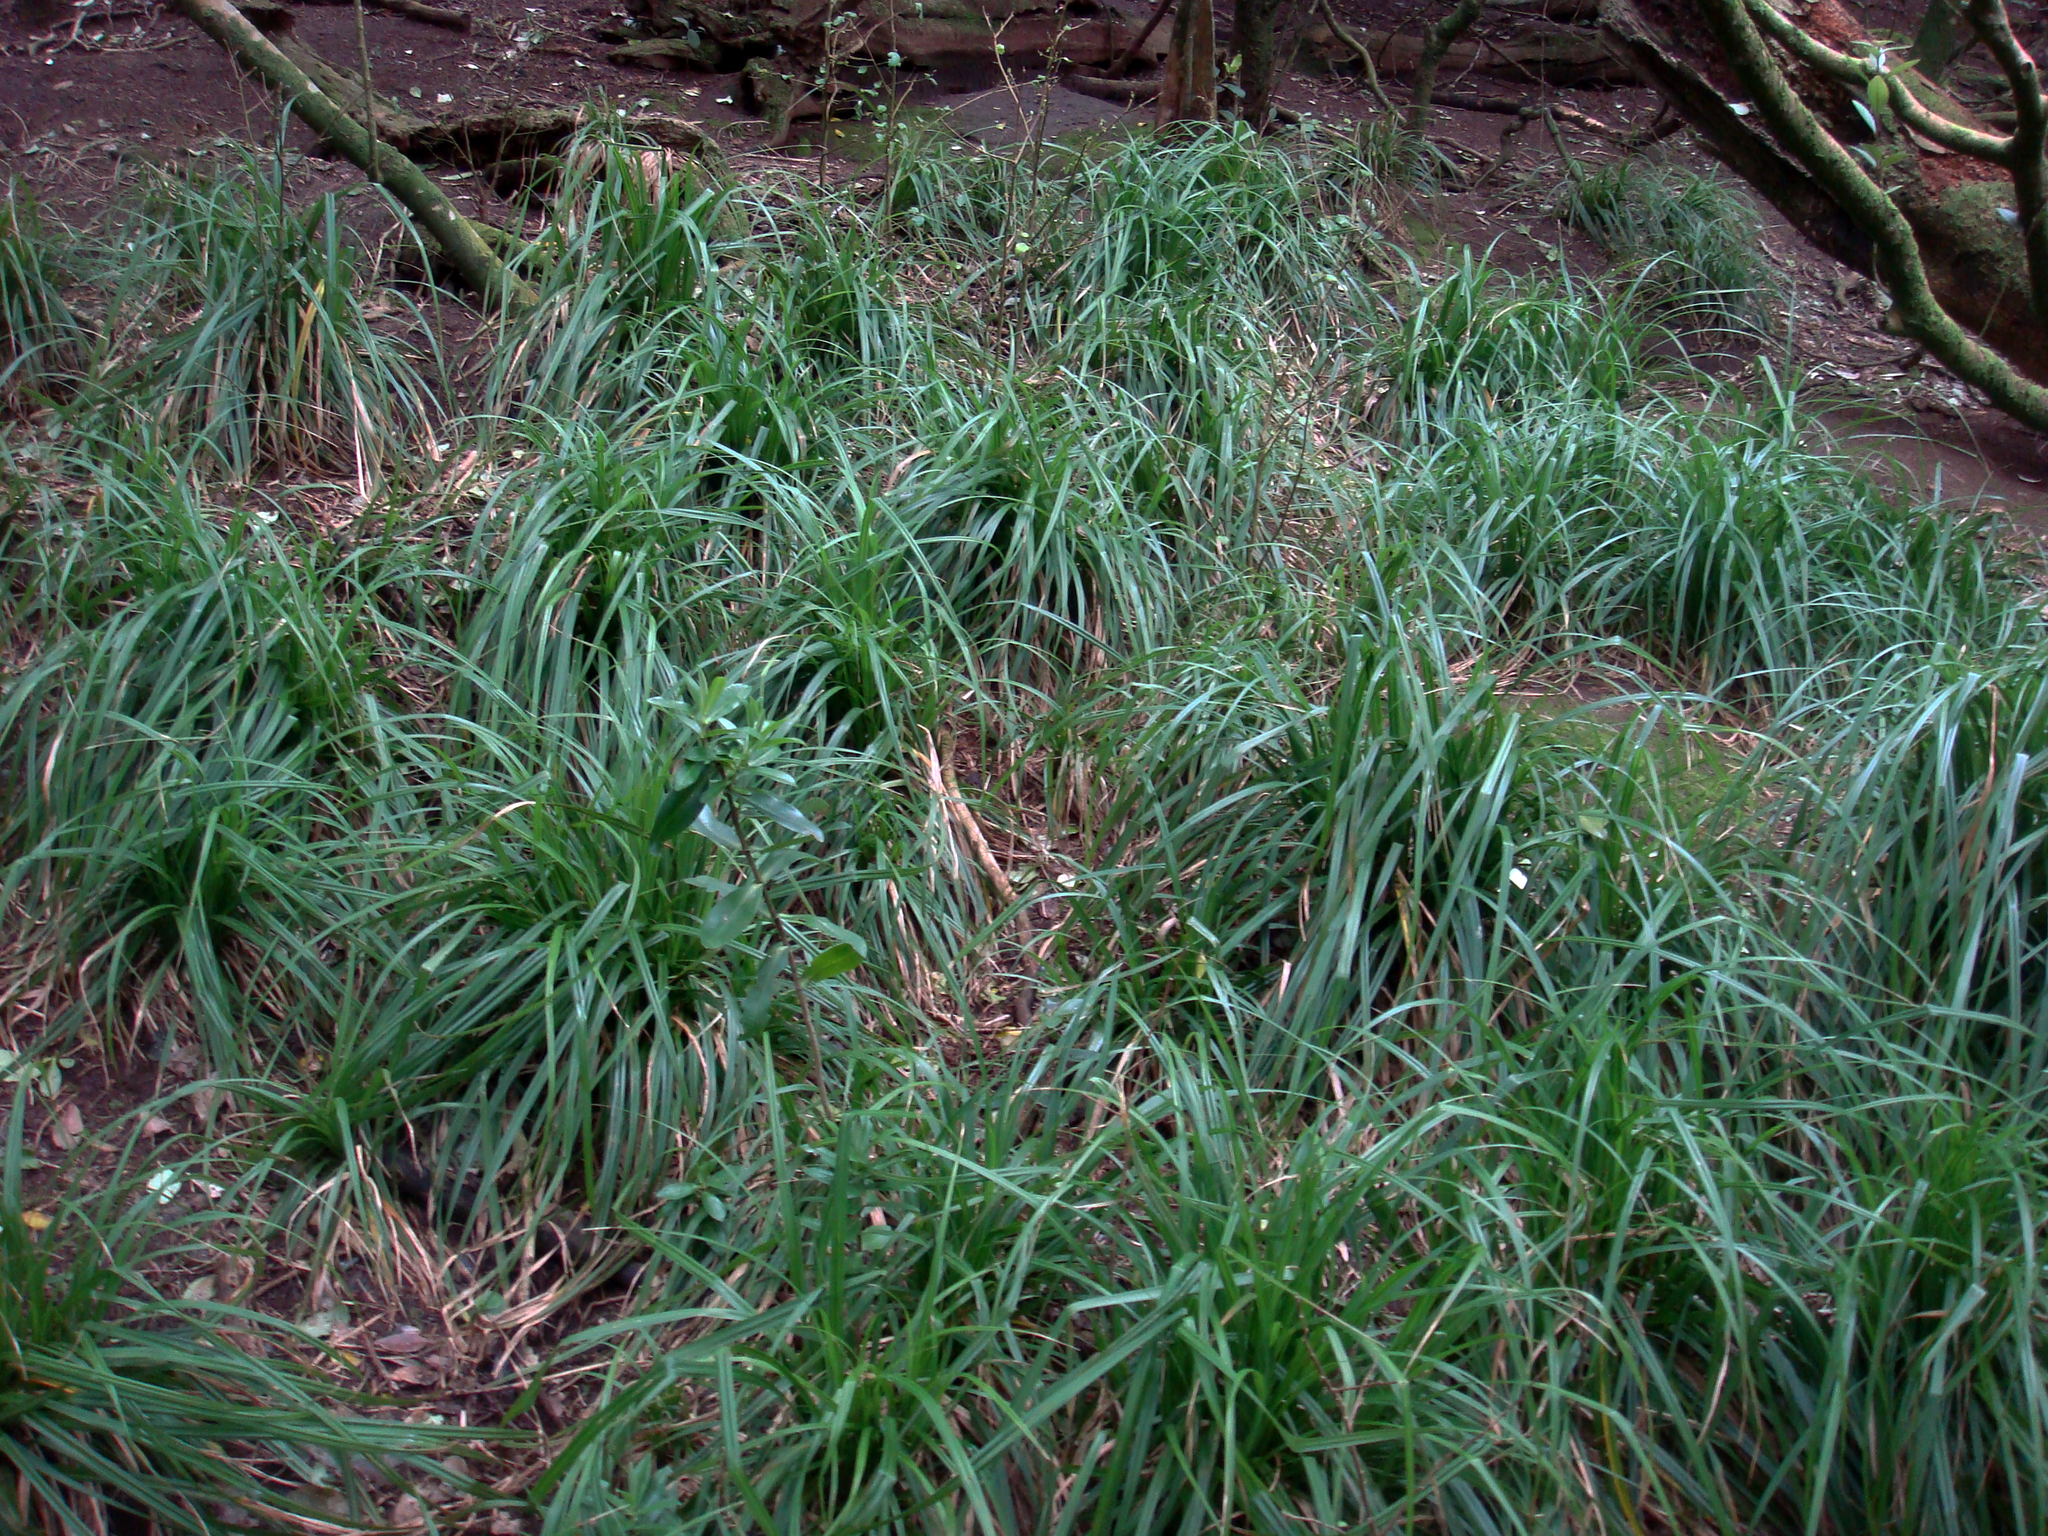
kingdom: Plantae
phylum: Tracheophyta
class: Liliopsida
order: Poales
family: Cyperaceae
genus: Carex
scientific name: Carex ventosa
